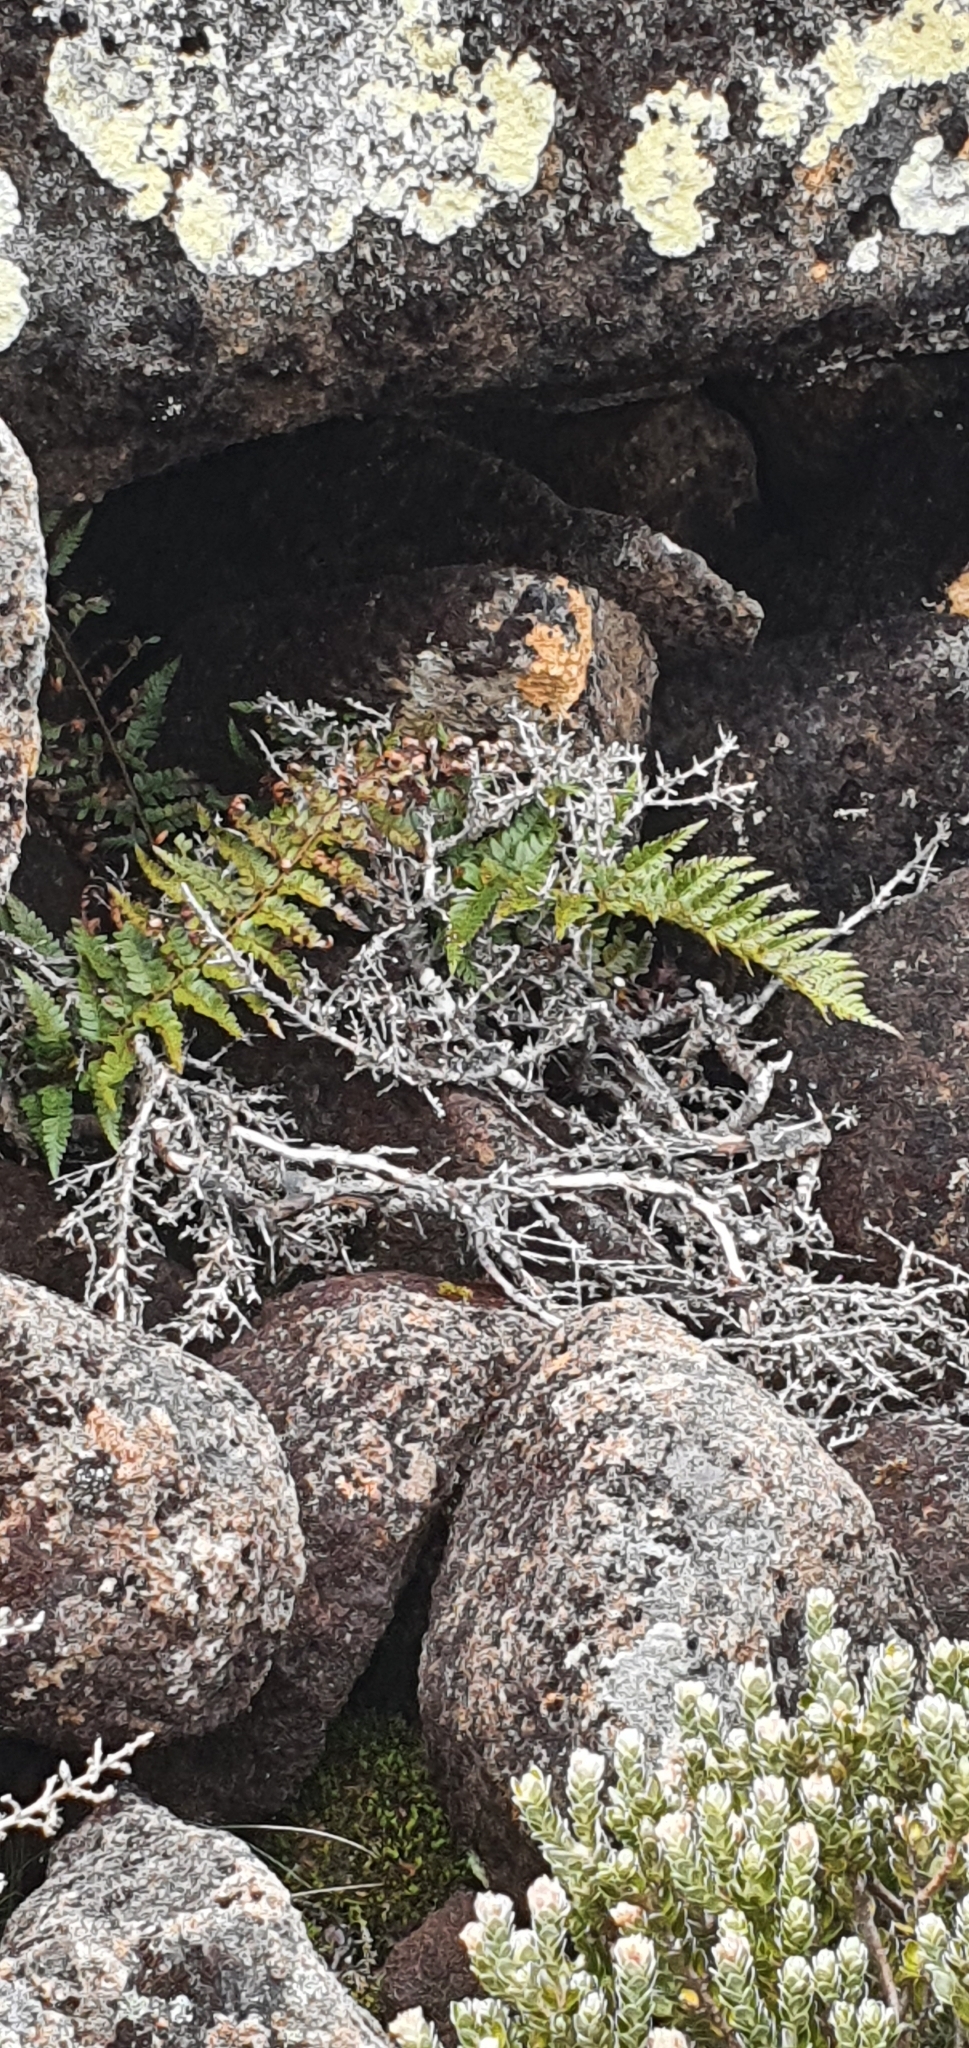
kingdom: Plantae
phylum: Tracheophyta
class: Polypodiopsida
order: Polypodiales
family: Dryopteridaceae
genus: Polystichum
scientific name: Polystichum proliferum
